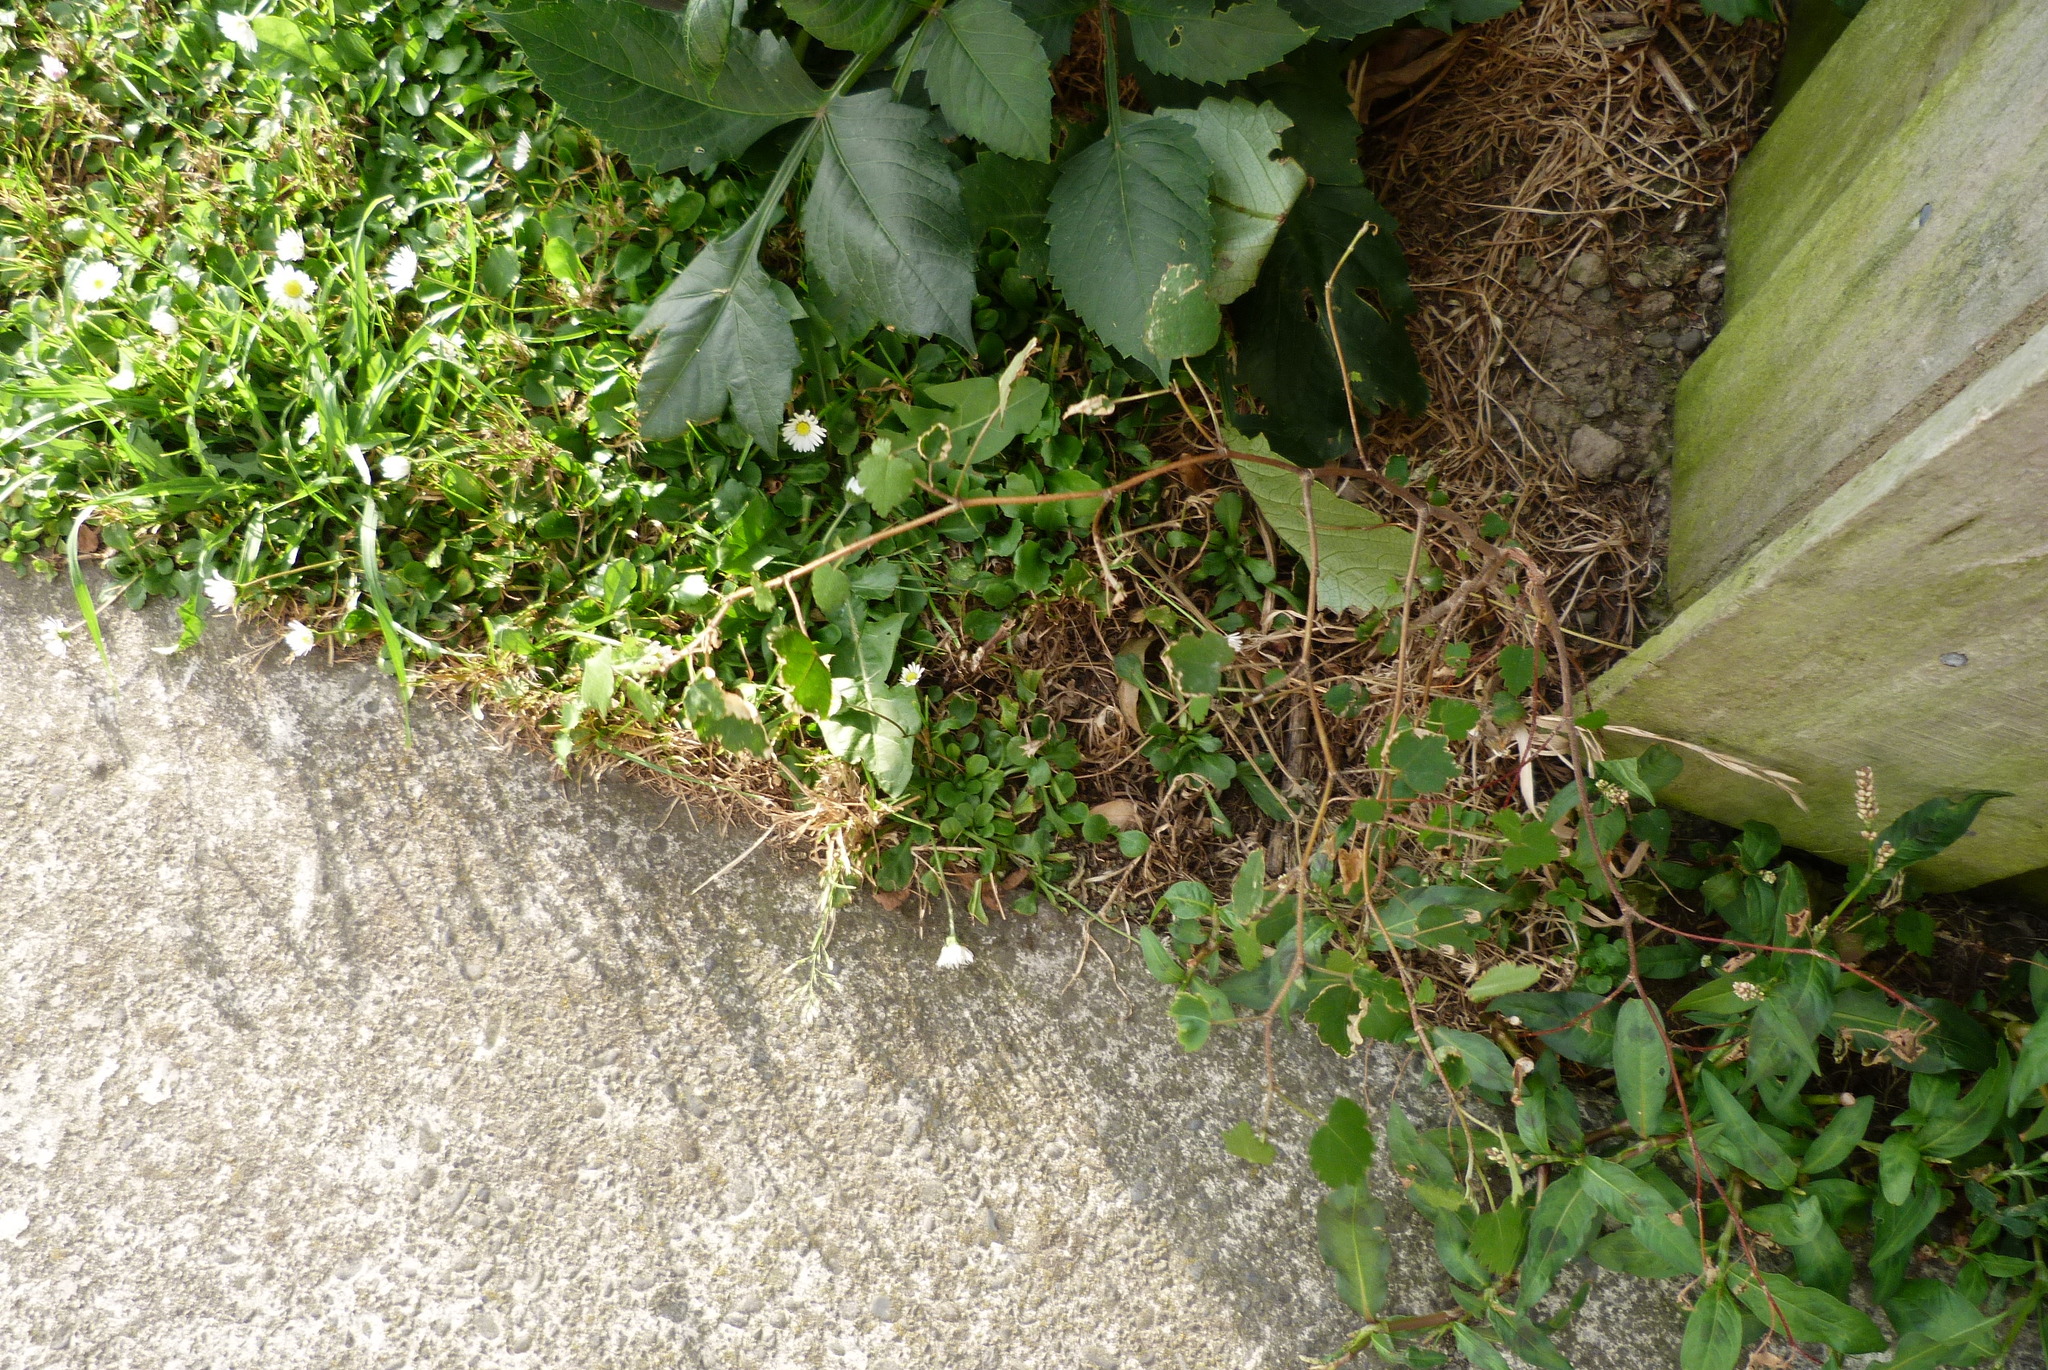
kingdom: Plantae
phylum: Tracheophyta
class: Magnoliopsida
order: Malvales
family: Malvaceae
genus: Plagianthus
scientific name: Plagianthus regius
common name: Manatu
